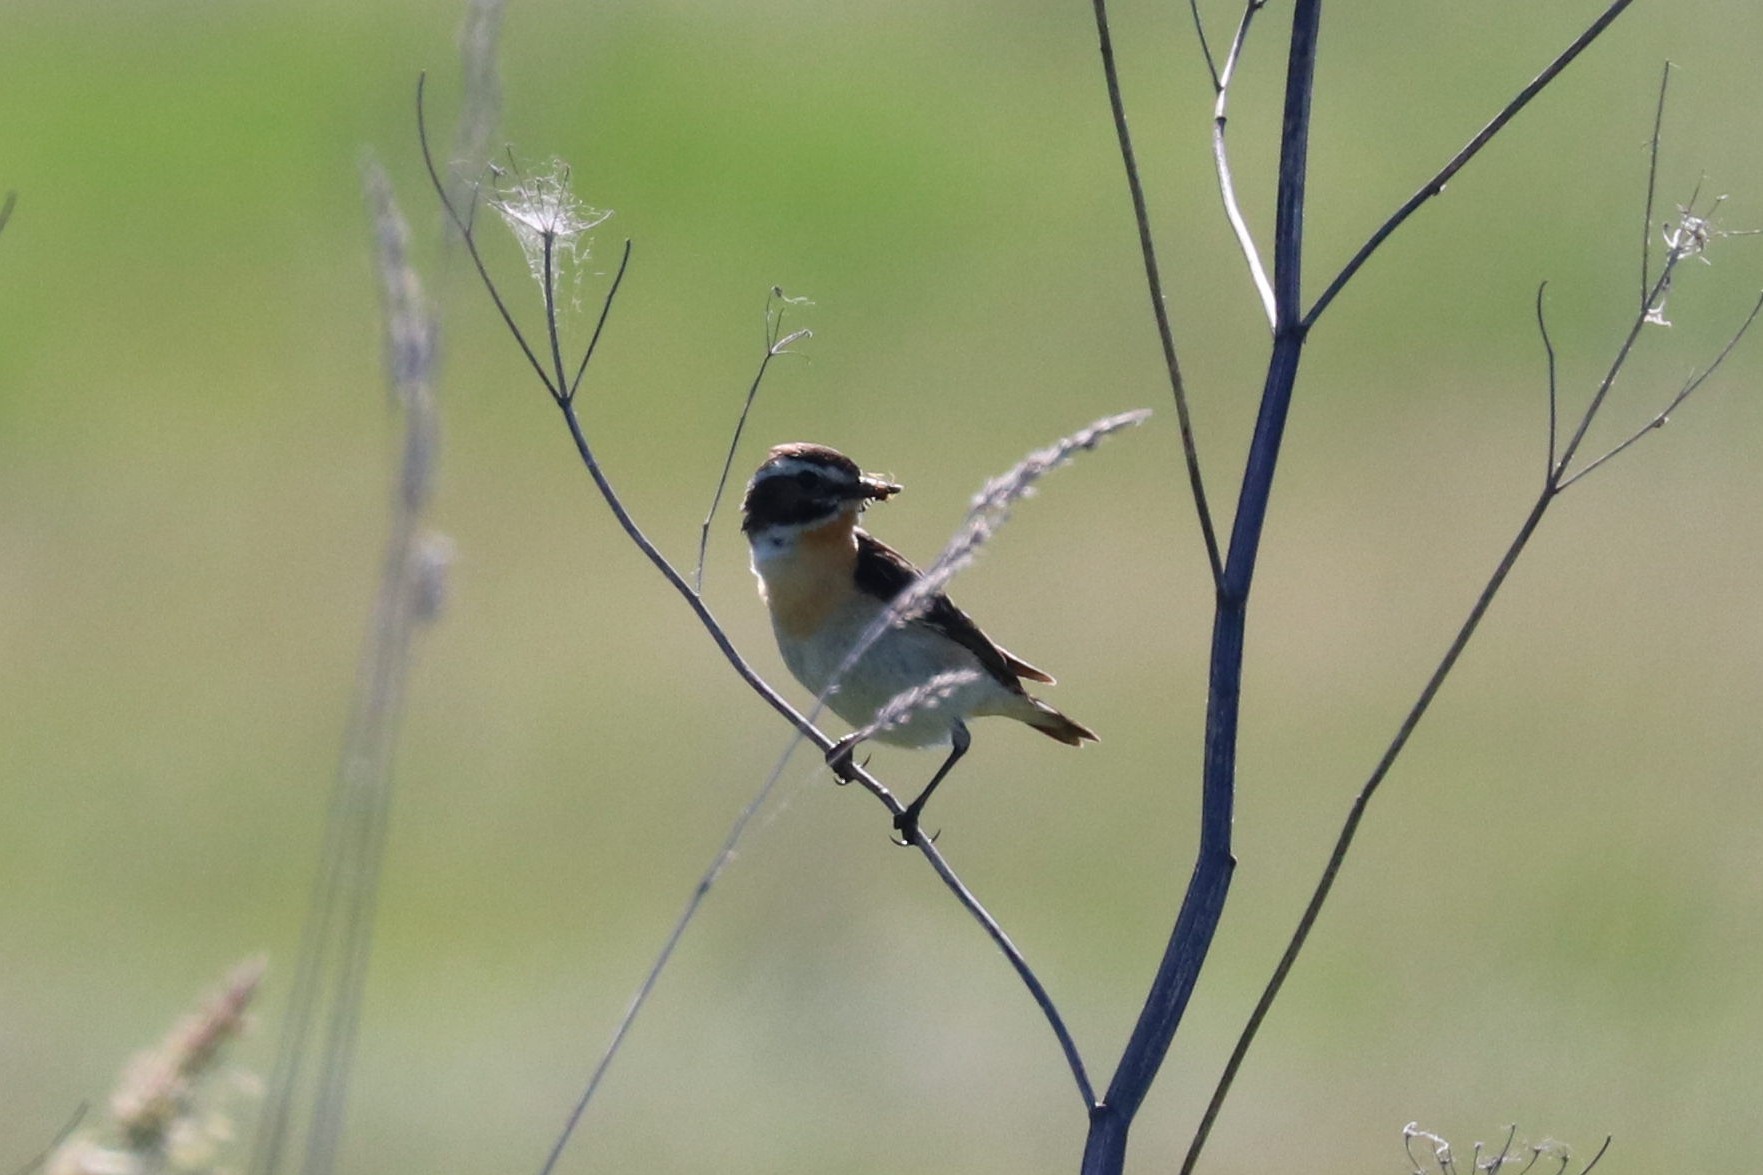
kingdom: Animalia
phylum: Chordata
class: Aves
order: Passeriformes
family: Muscicapidae
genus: Saxicola
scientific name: Saxicola rubetra
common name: Whinchat
